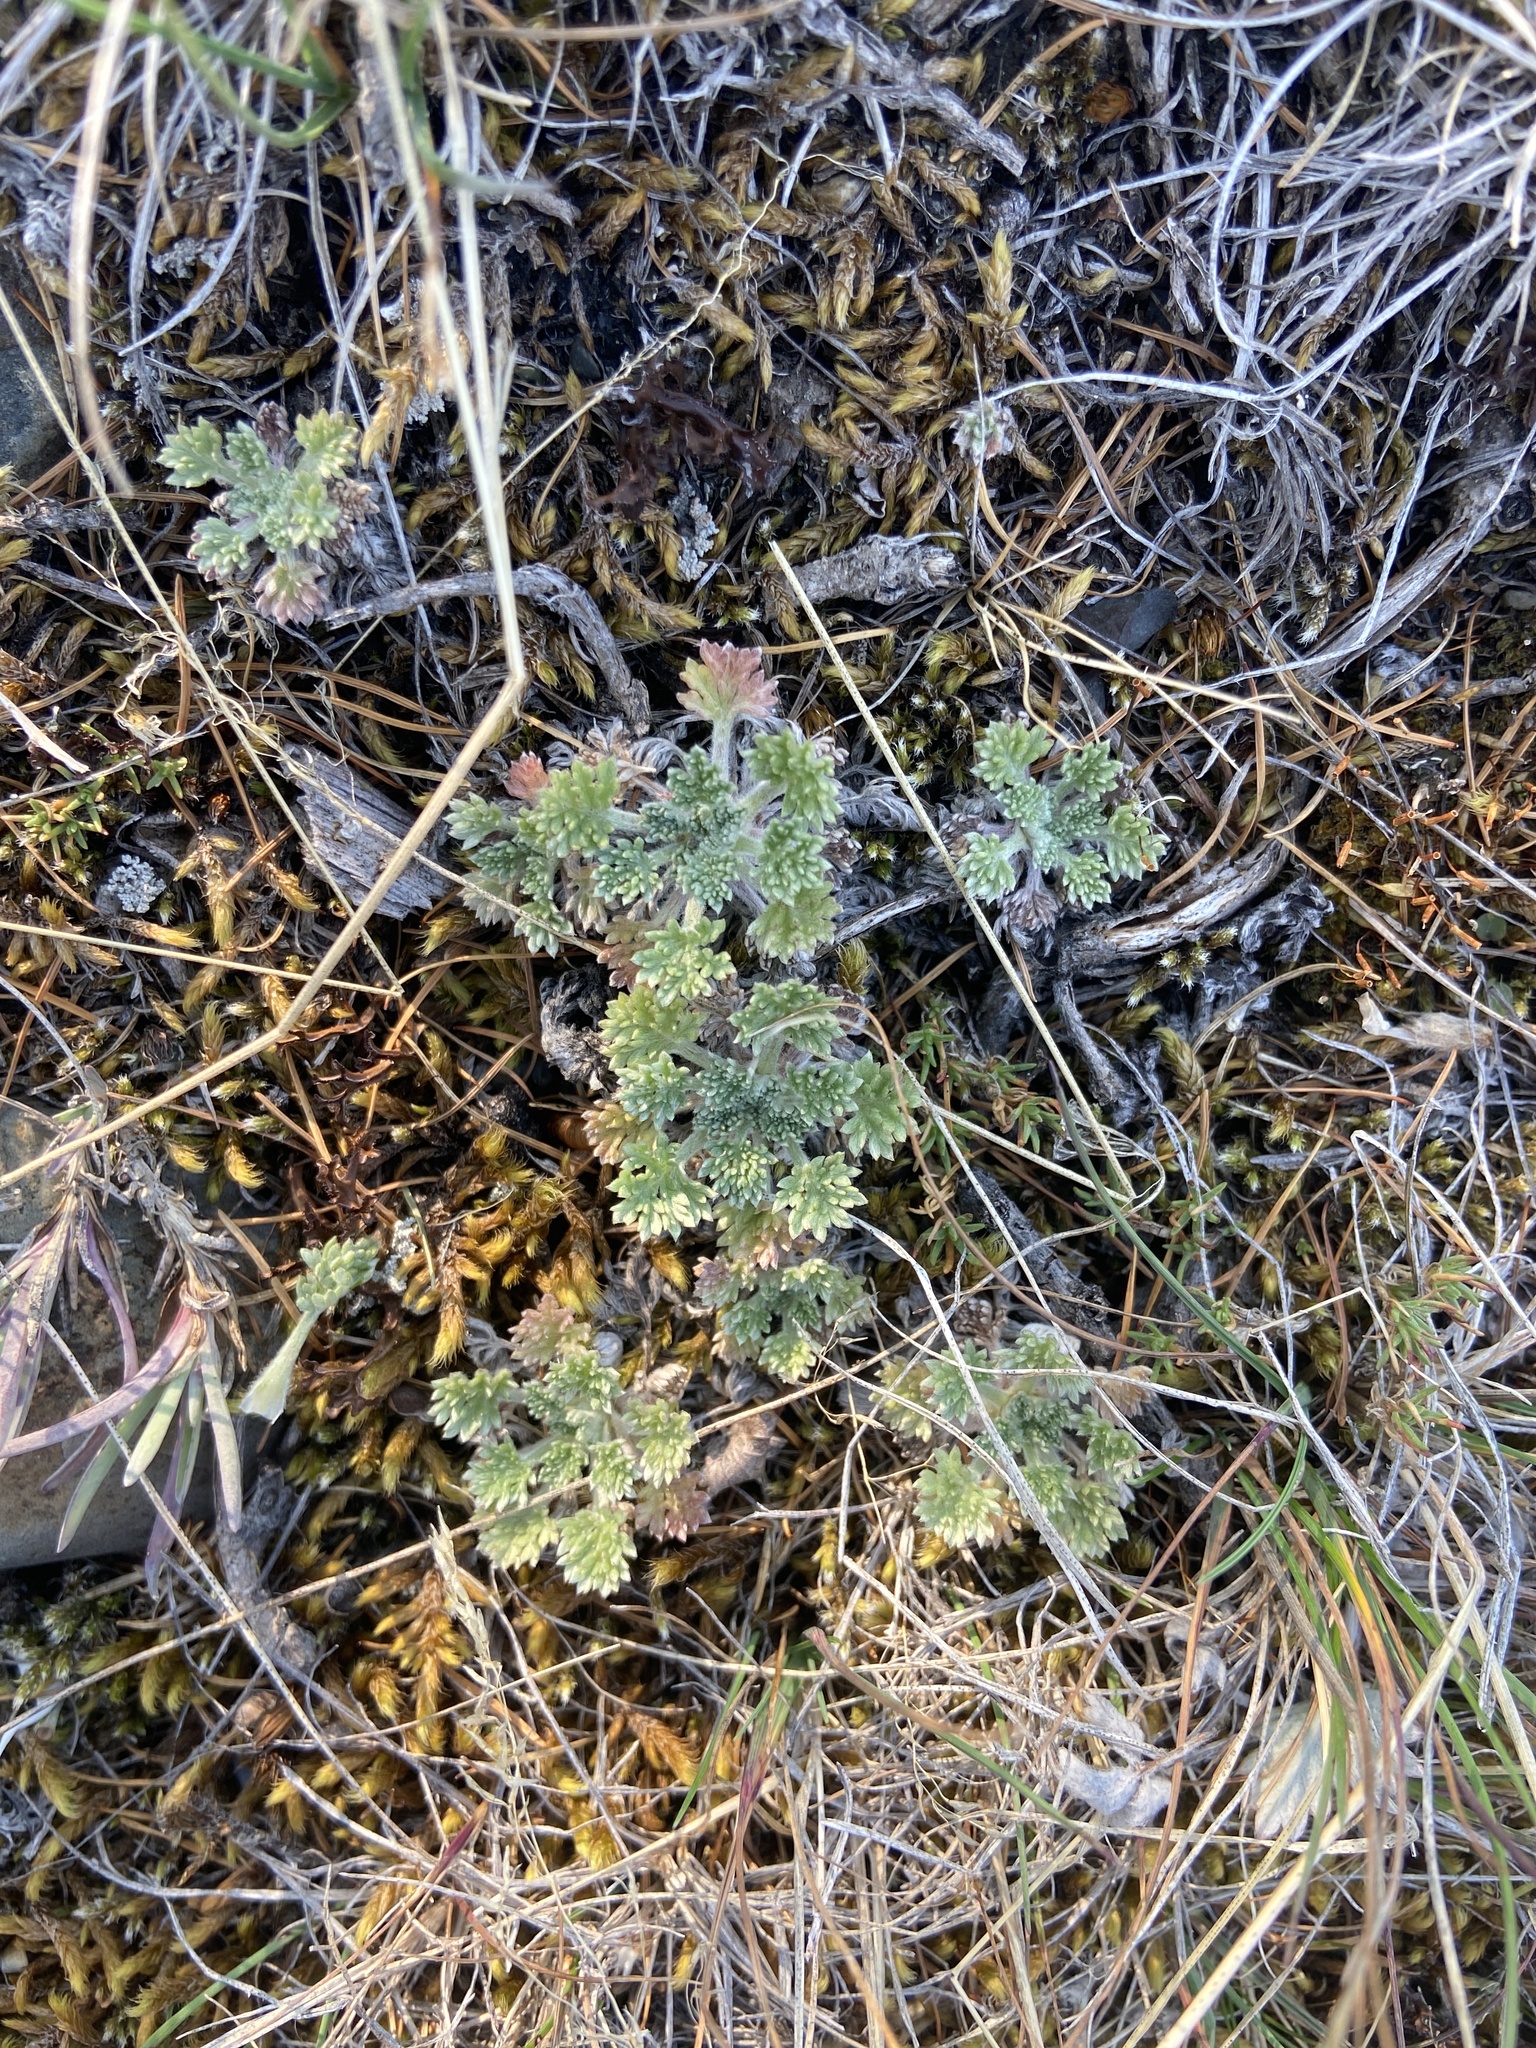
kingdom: Plantae
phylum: Tracheophyta
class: Magnoliopsida
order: Asterales
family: Asteraceae
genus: Artemisia
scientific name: Artemisia lagopus
